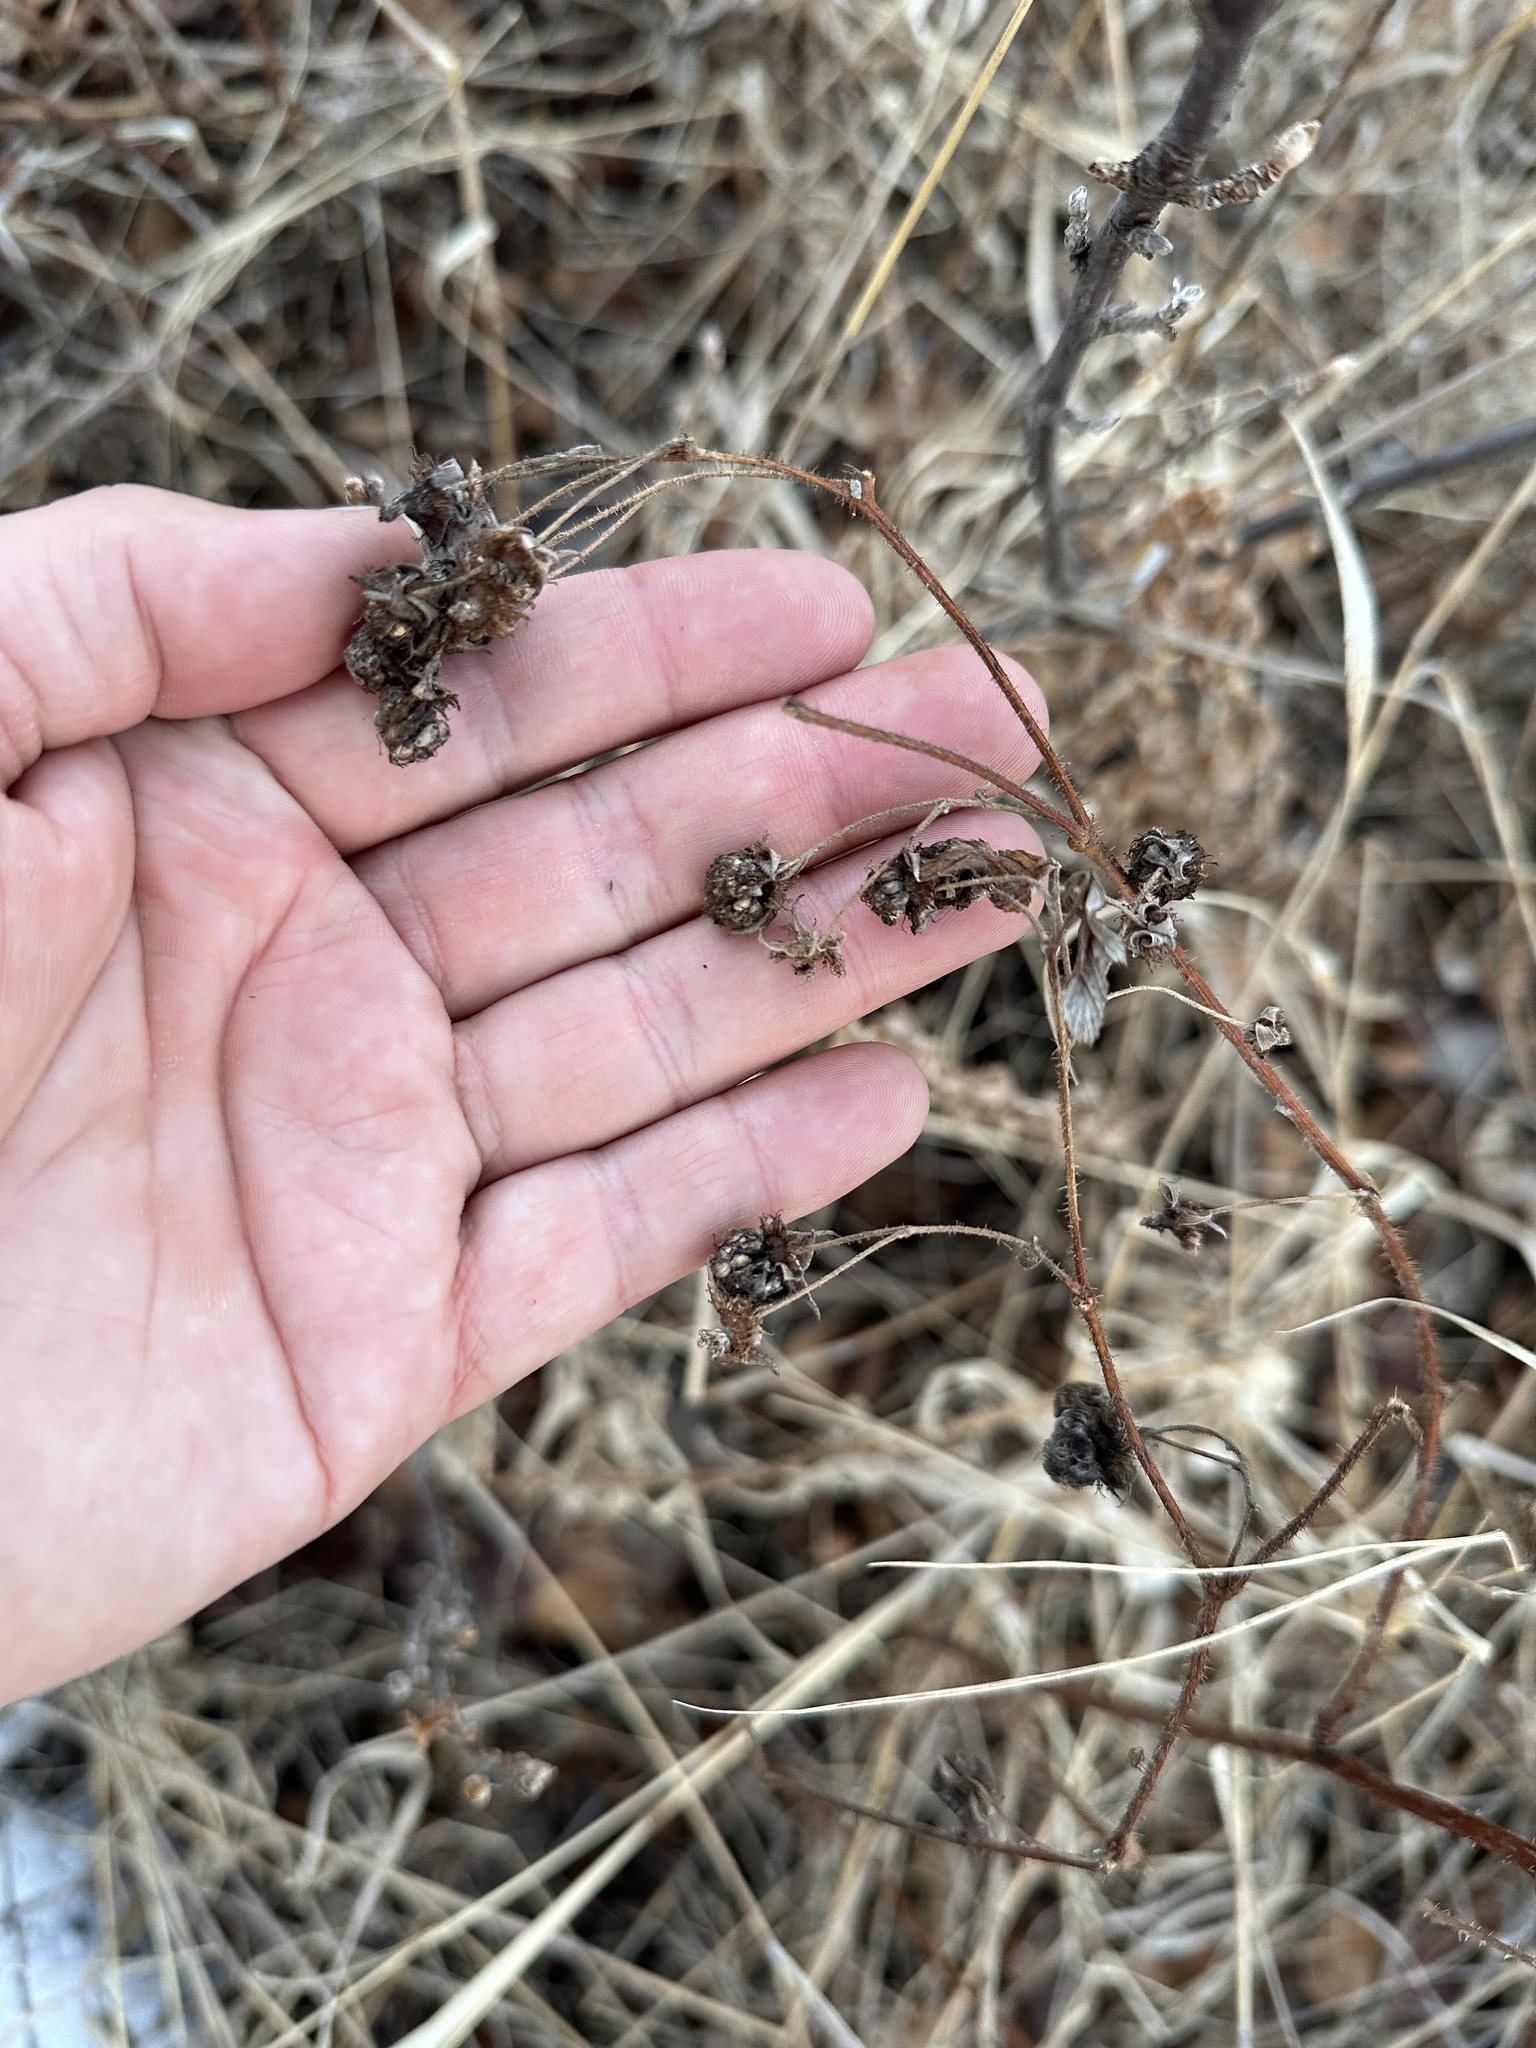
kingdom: Plantae
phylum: Tracheophyta
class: Magnoliopsida
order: Rosales
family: Rosaceae
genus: Rubus
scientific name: Rubus idaeus
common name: Raspberry
